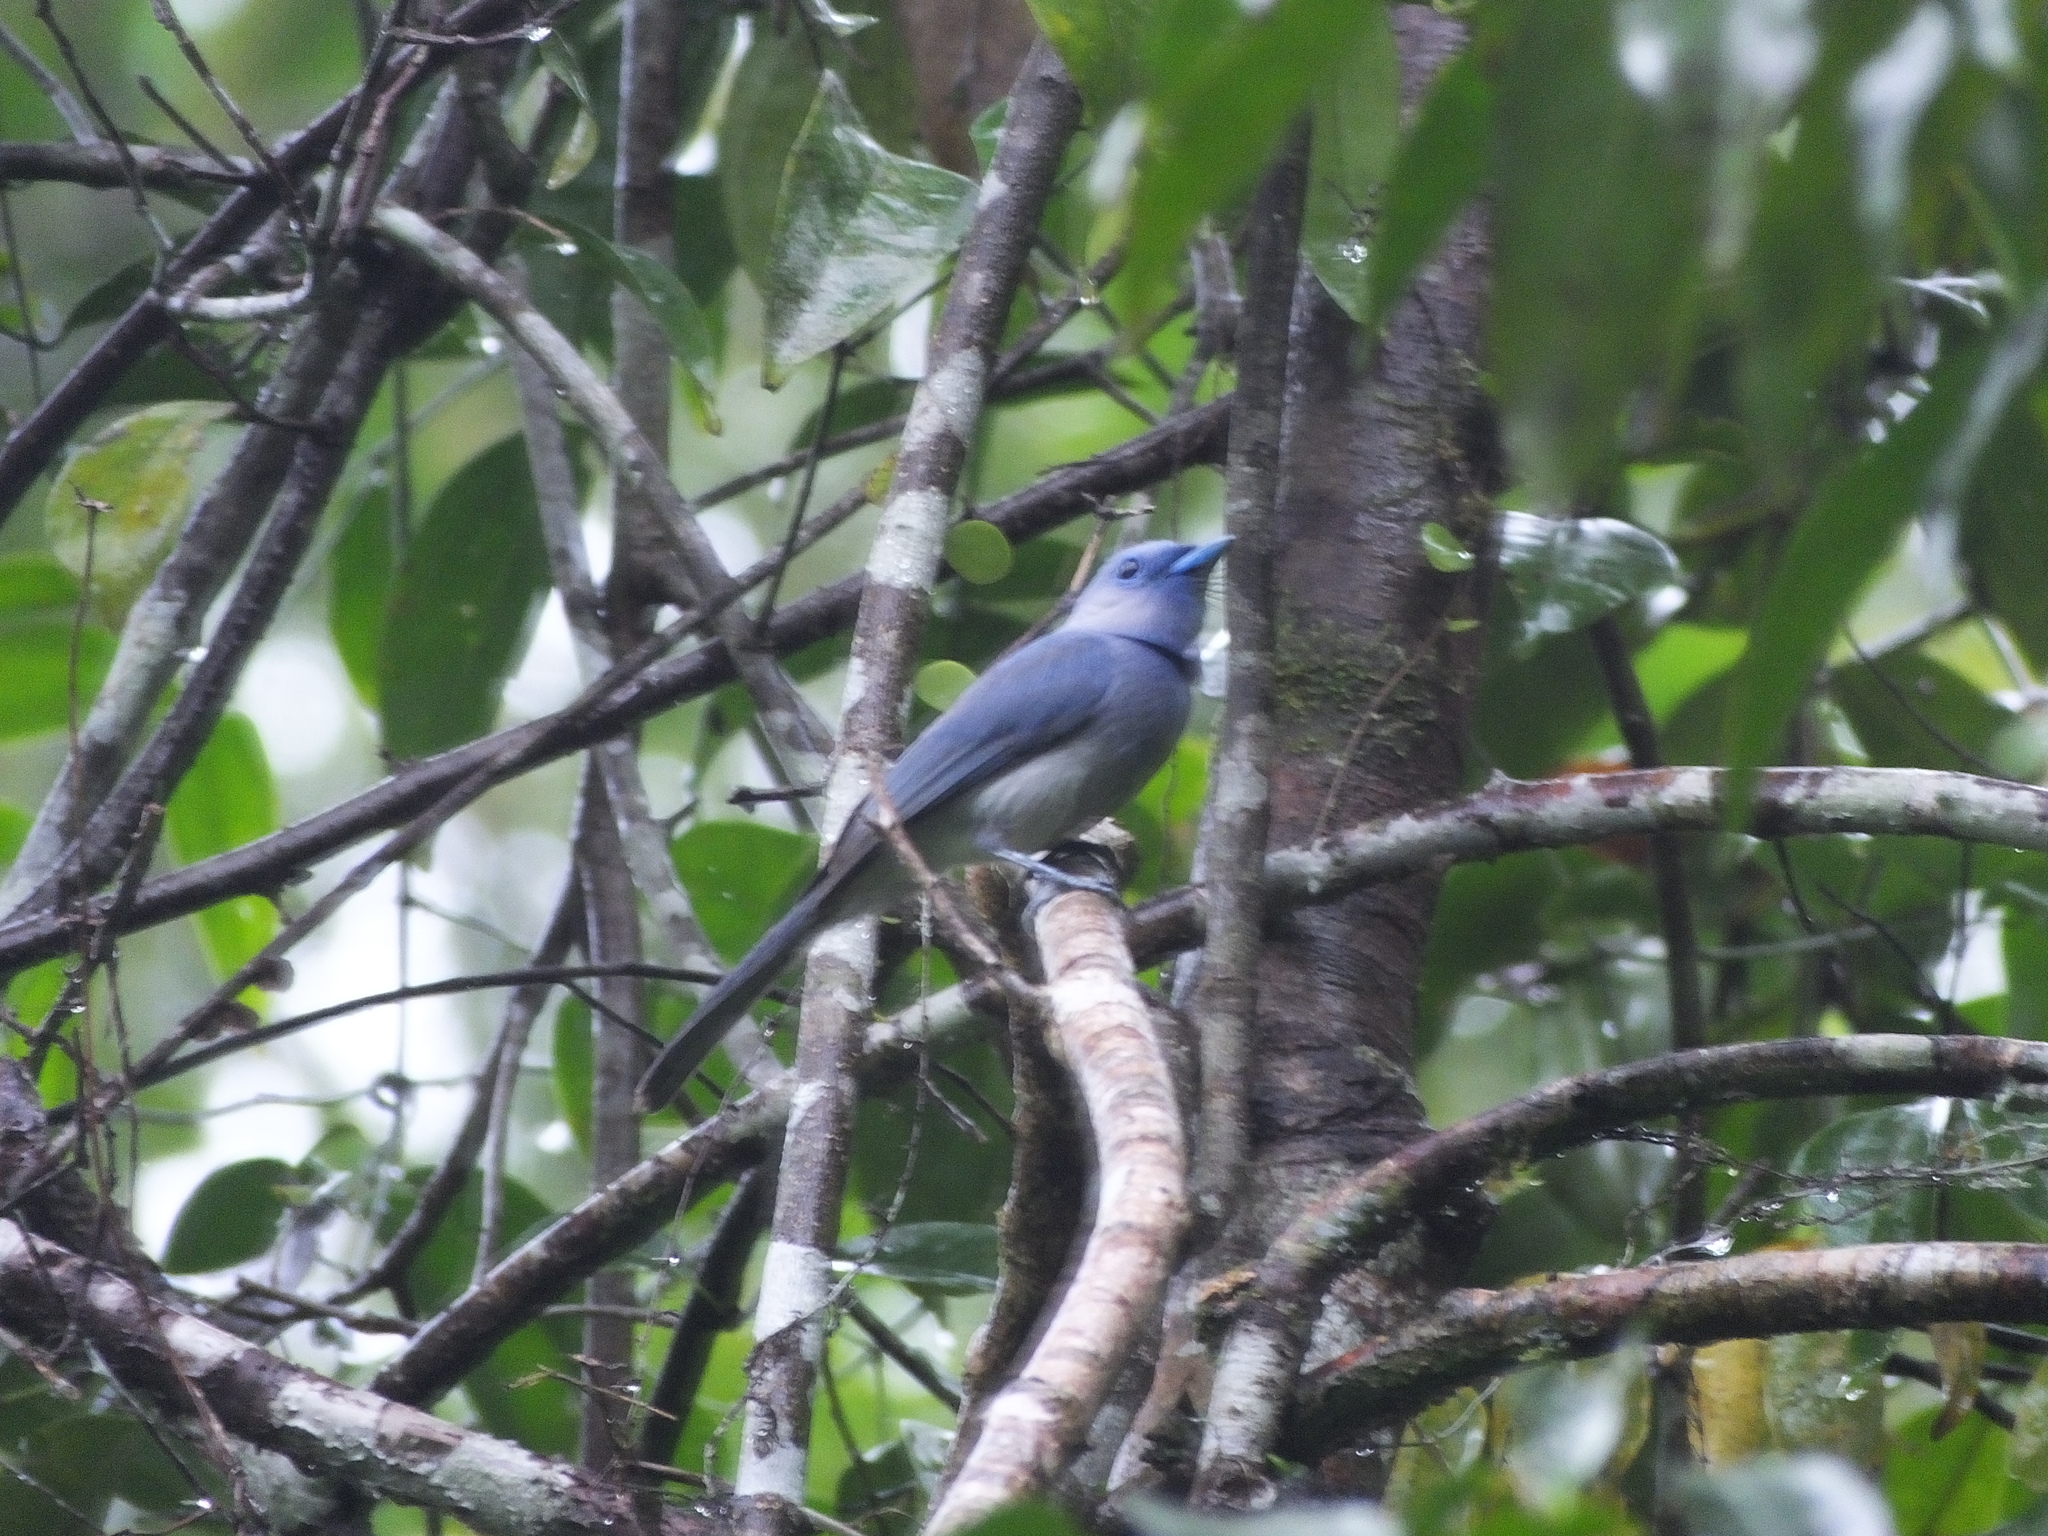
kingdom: Animalia
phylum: Chordata
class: Aves
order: Passeriformes
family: Monarchidae
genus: Hypothymis
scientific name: Hypothymis azurea
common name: Black-naped monarch
